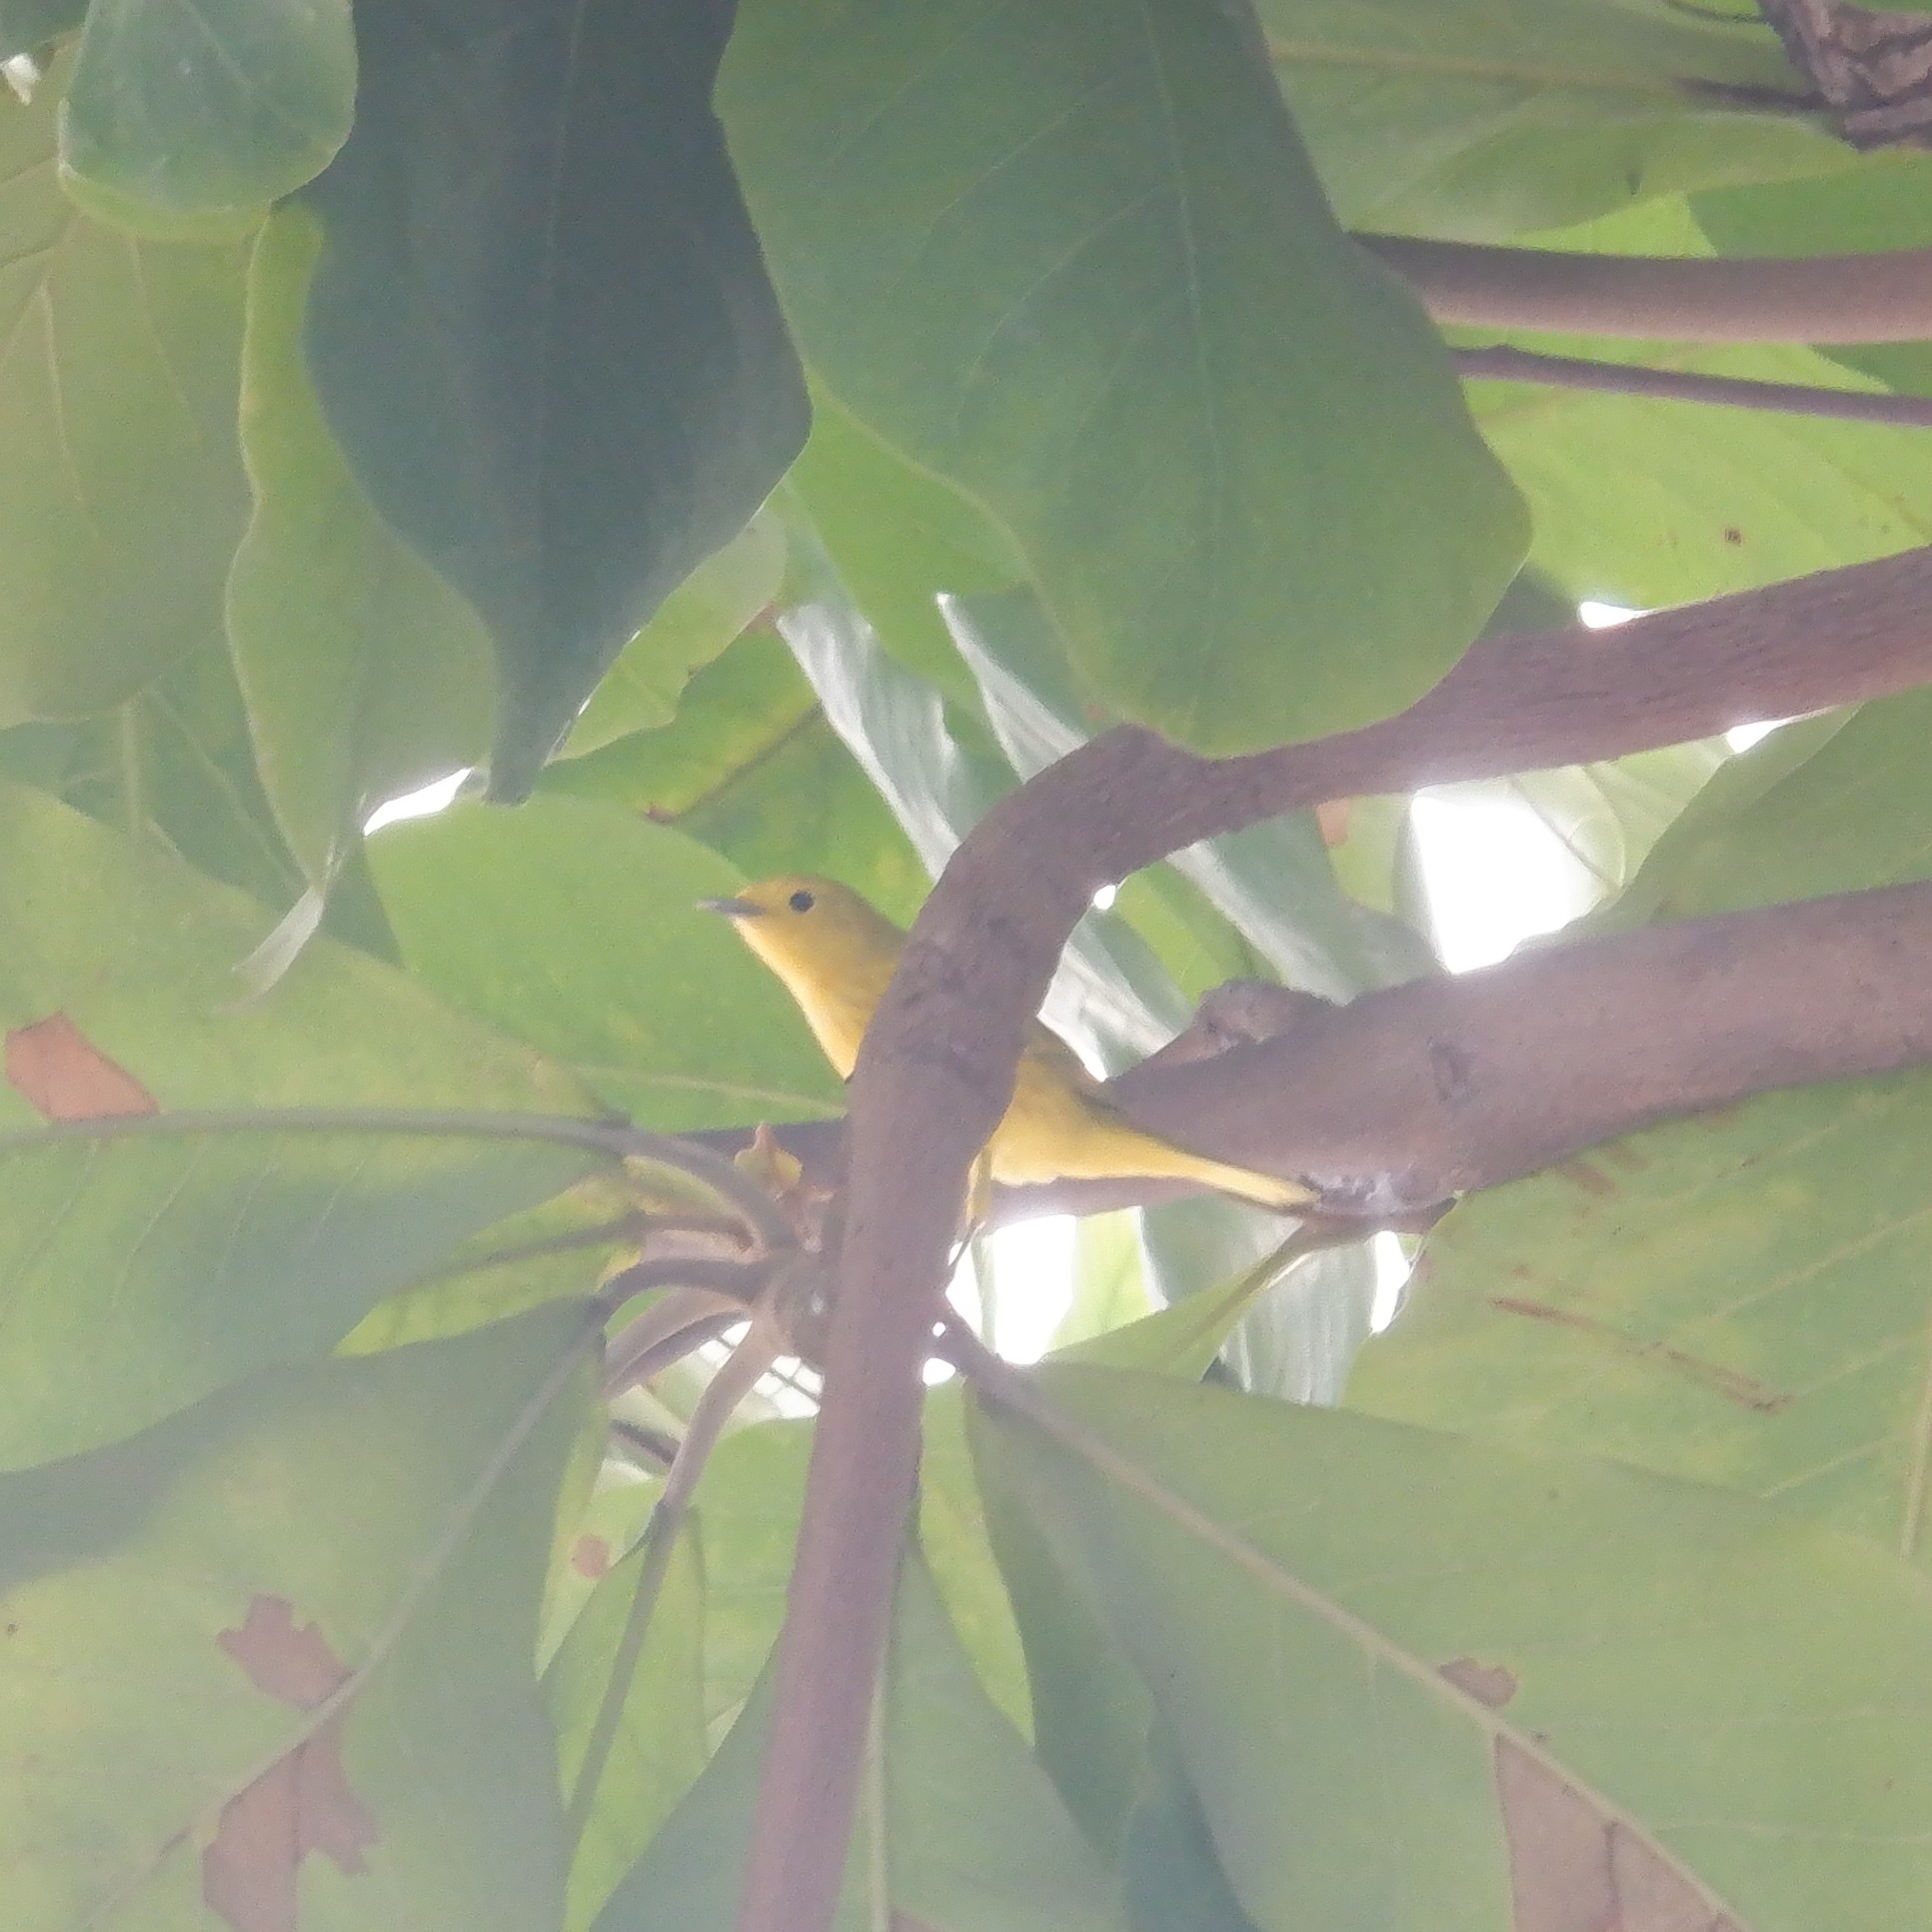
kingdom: Animalia
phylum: Chordata
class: Aves
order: Passeriformes
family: Parulidae
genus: Setophaga
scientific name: Setophaga petechia
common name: Yellow warbler
